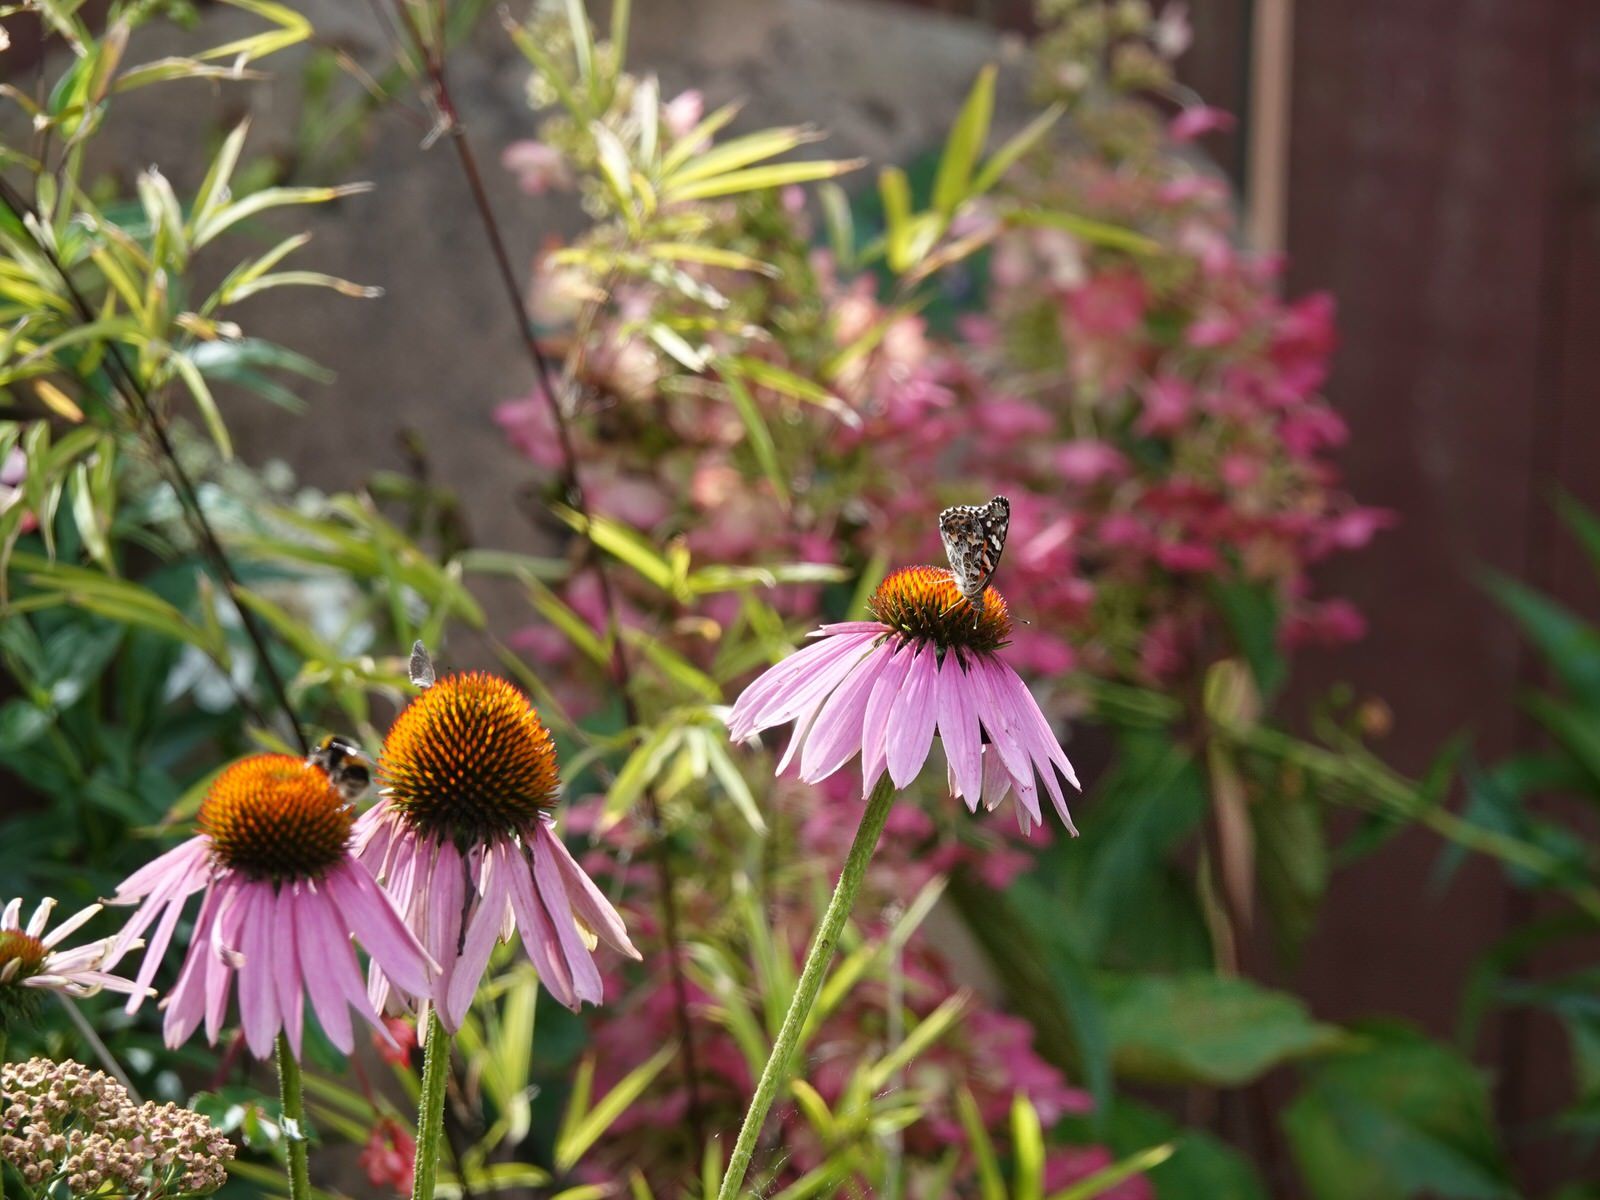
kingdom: Animalia
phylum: Arthropoda
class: Insecta
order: Lepidoptera
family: Nymphalidae
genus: Vanessa
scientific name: Vanessa kershawi
